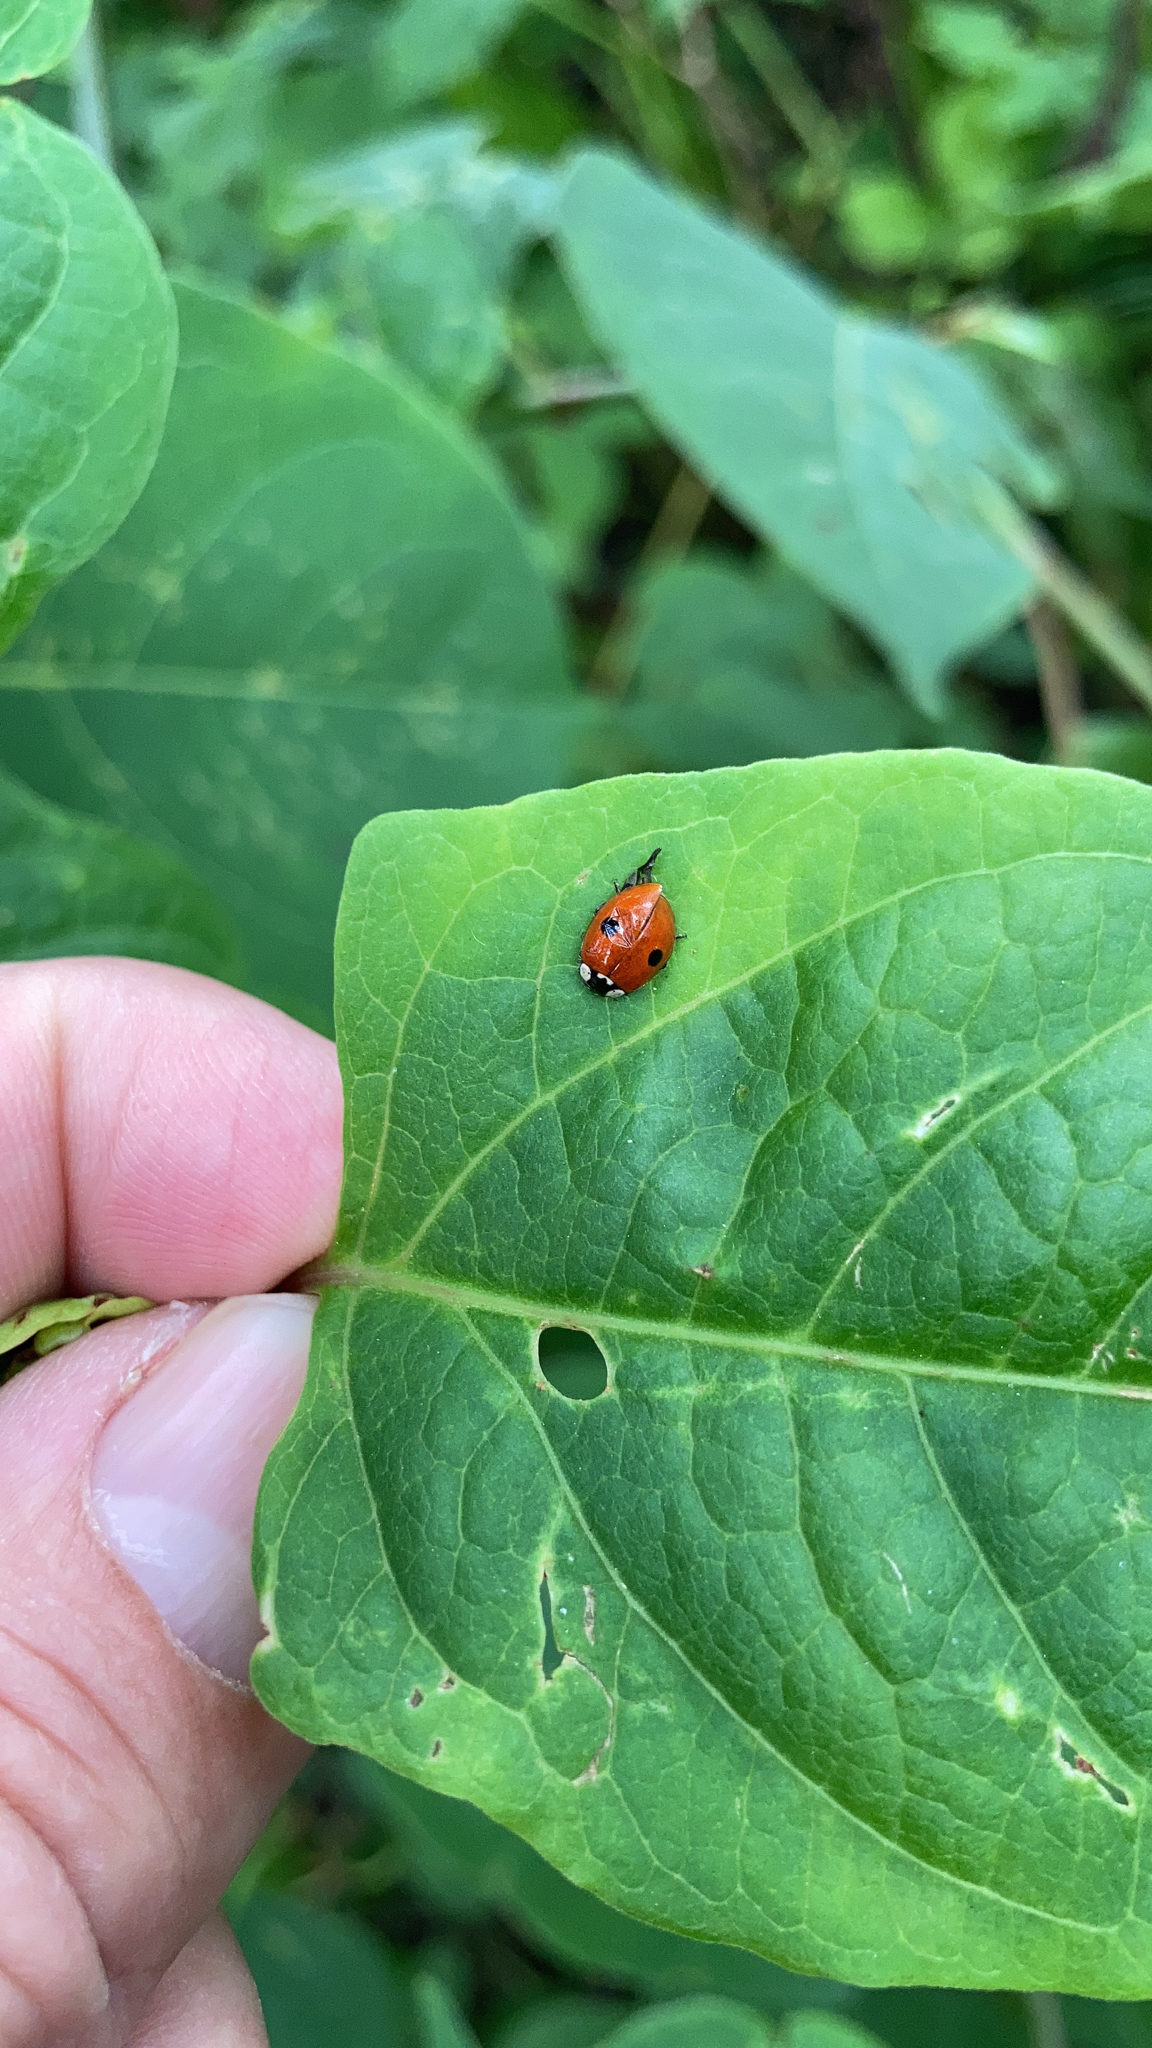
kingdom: Animalia
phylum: Arthropoda
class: Insecta
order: Coleoptera
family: Coccinellidae
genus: Adalia
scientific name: Adalia bipunctata
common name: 2-spot ladybird
